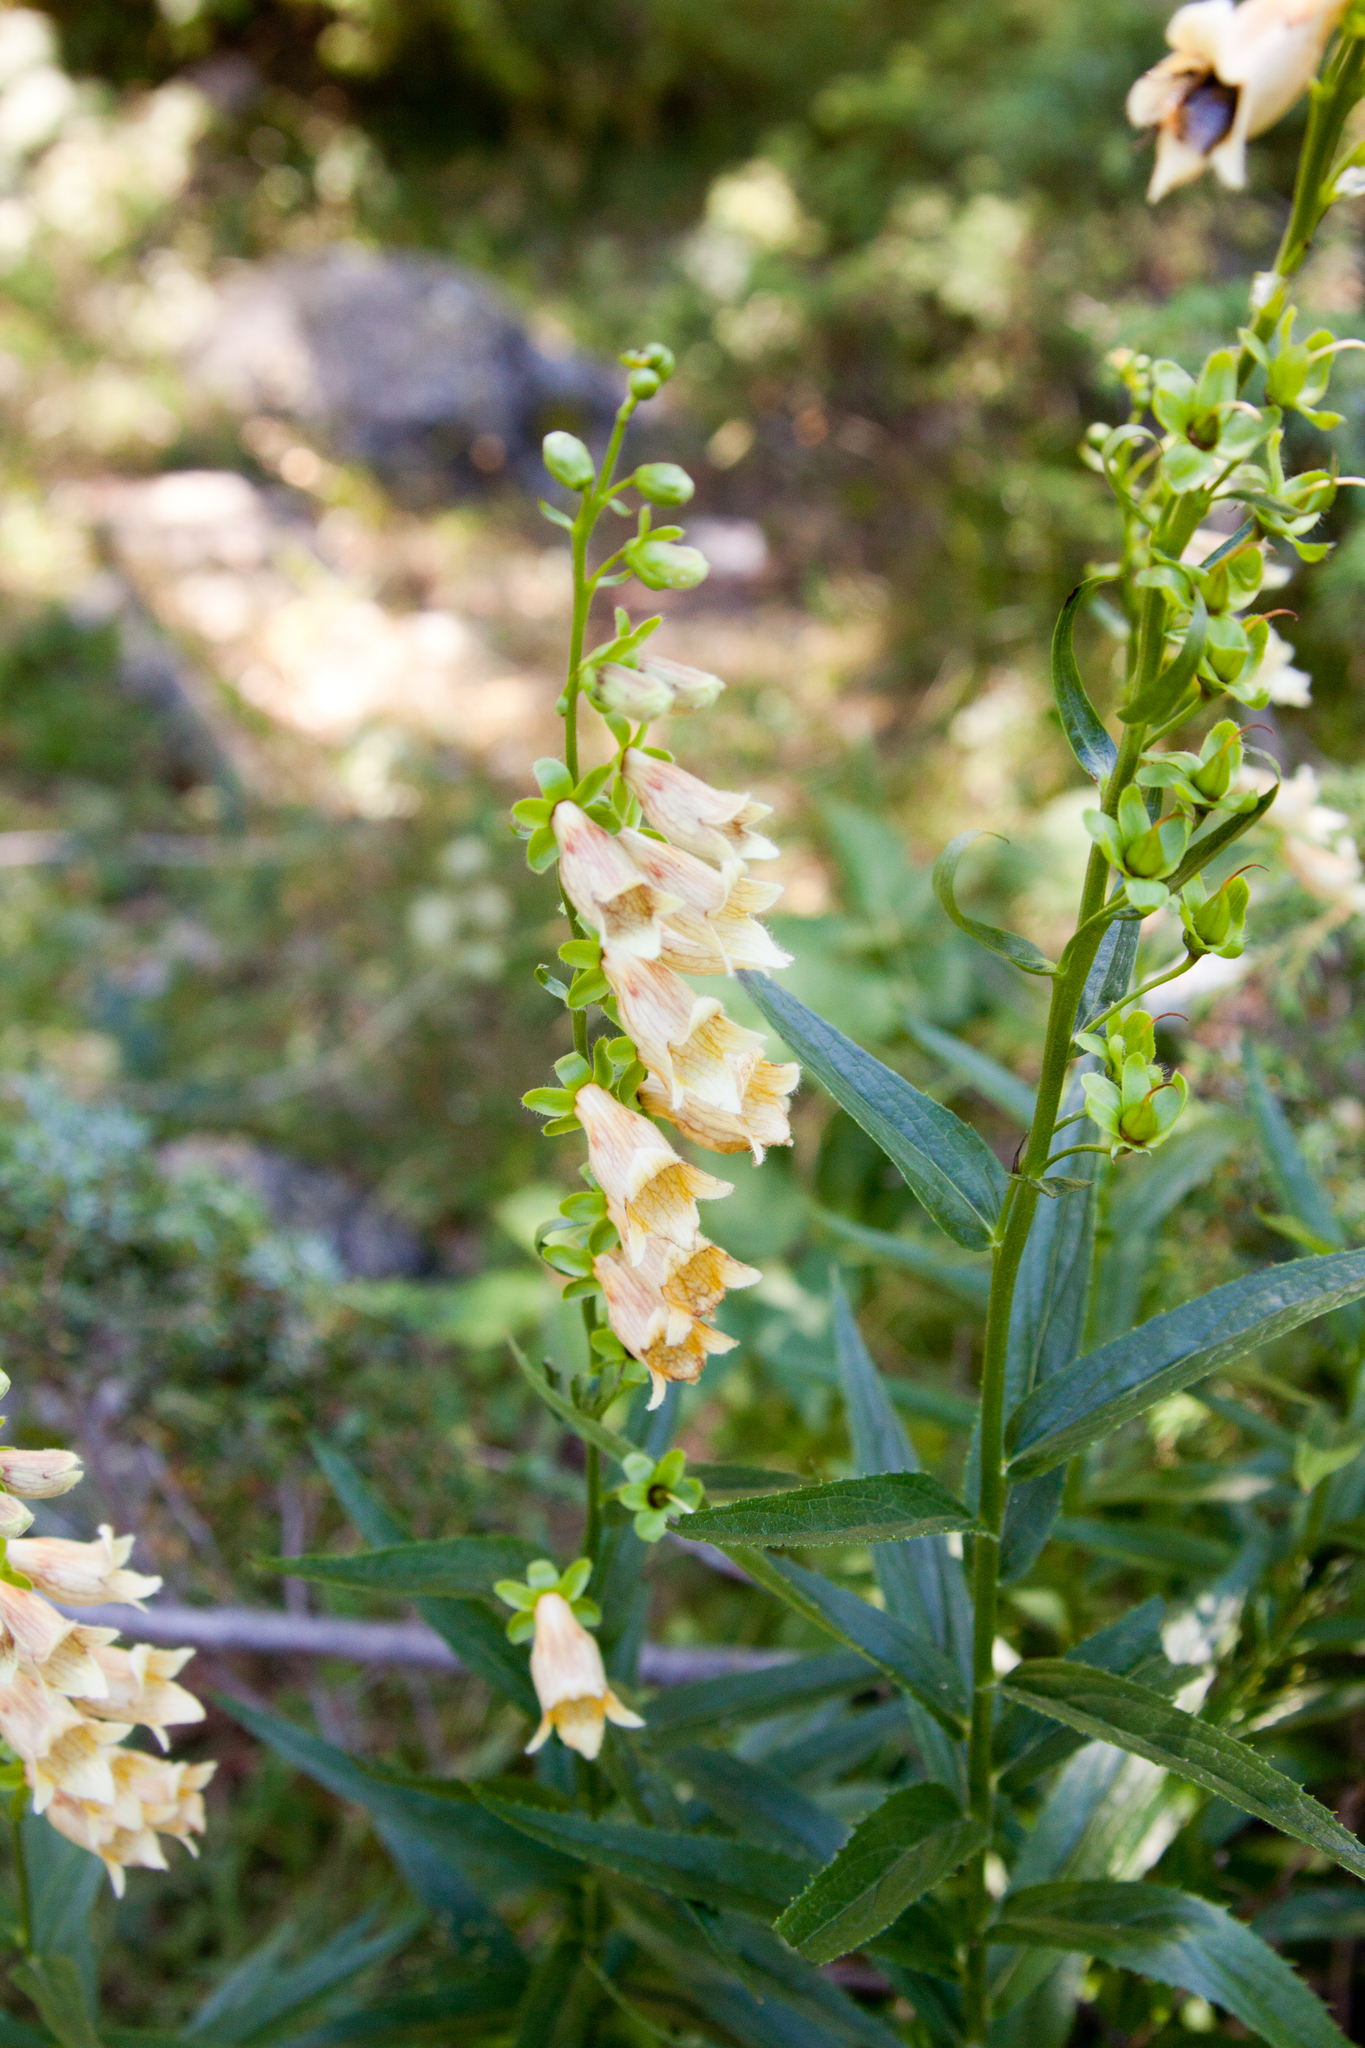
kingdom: Plantae
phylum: Tracheophyta
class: Magnoliopsida
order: Lamiales
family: Plantaginaceae
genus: Digitalis
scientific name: Digitalis ciliata
